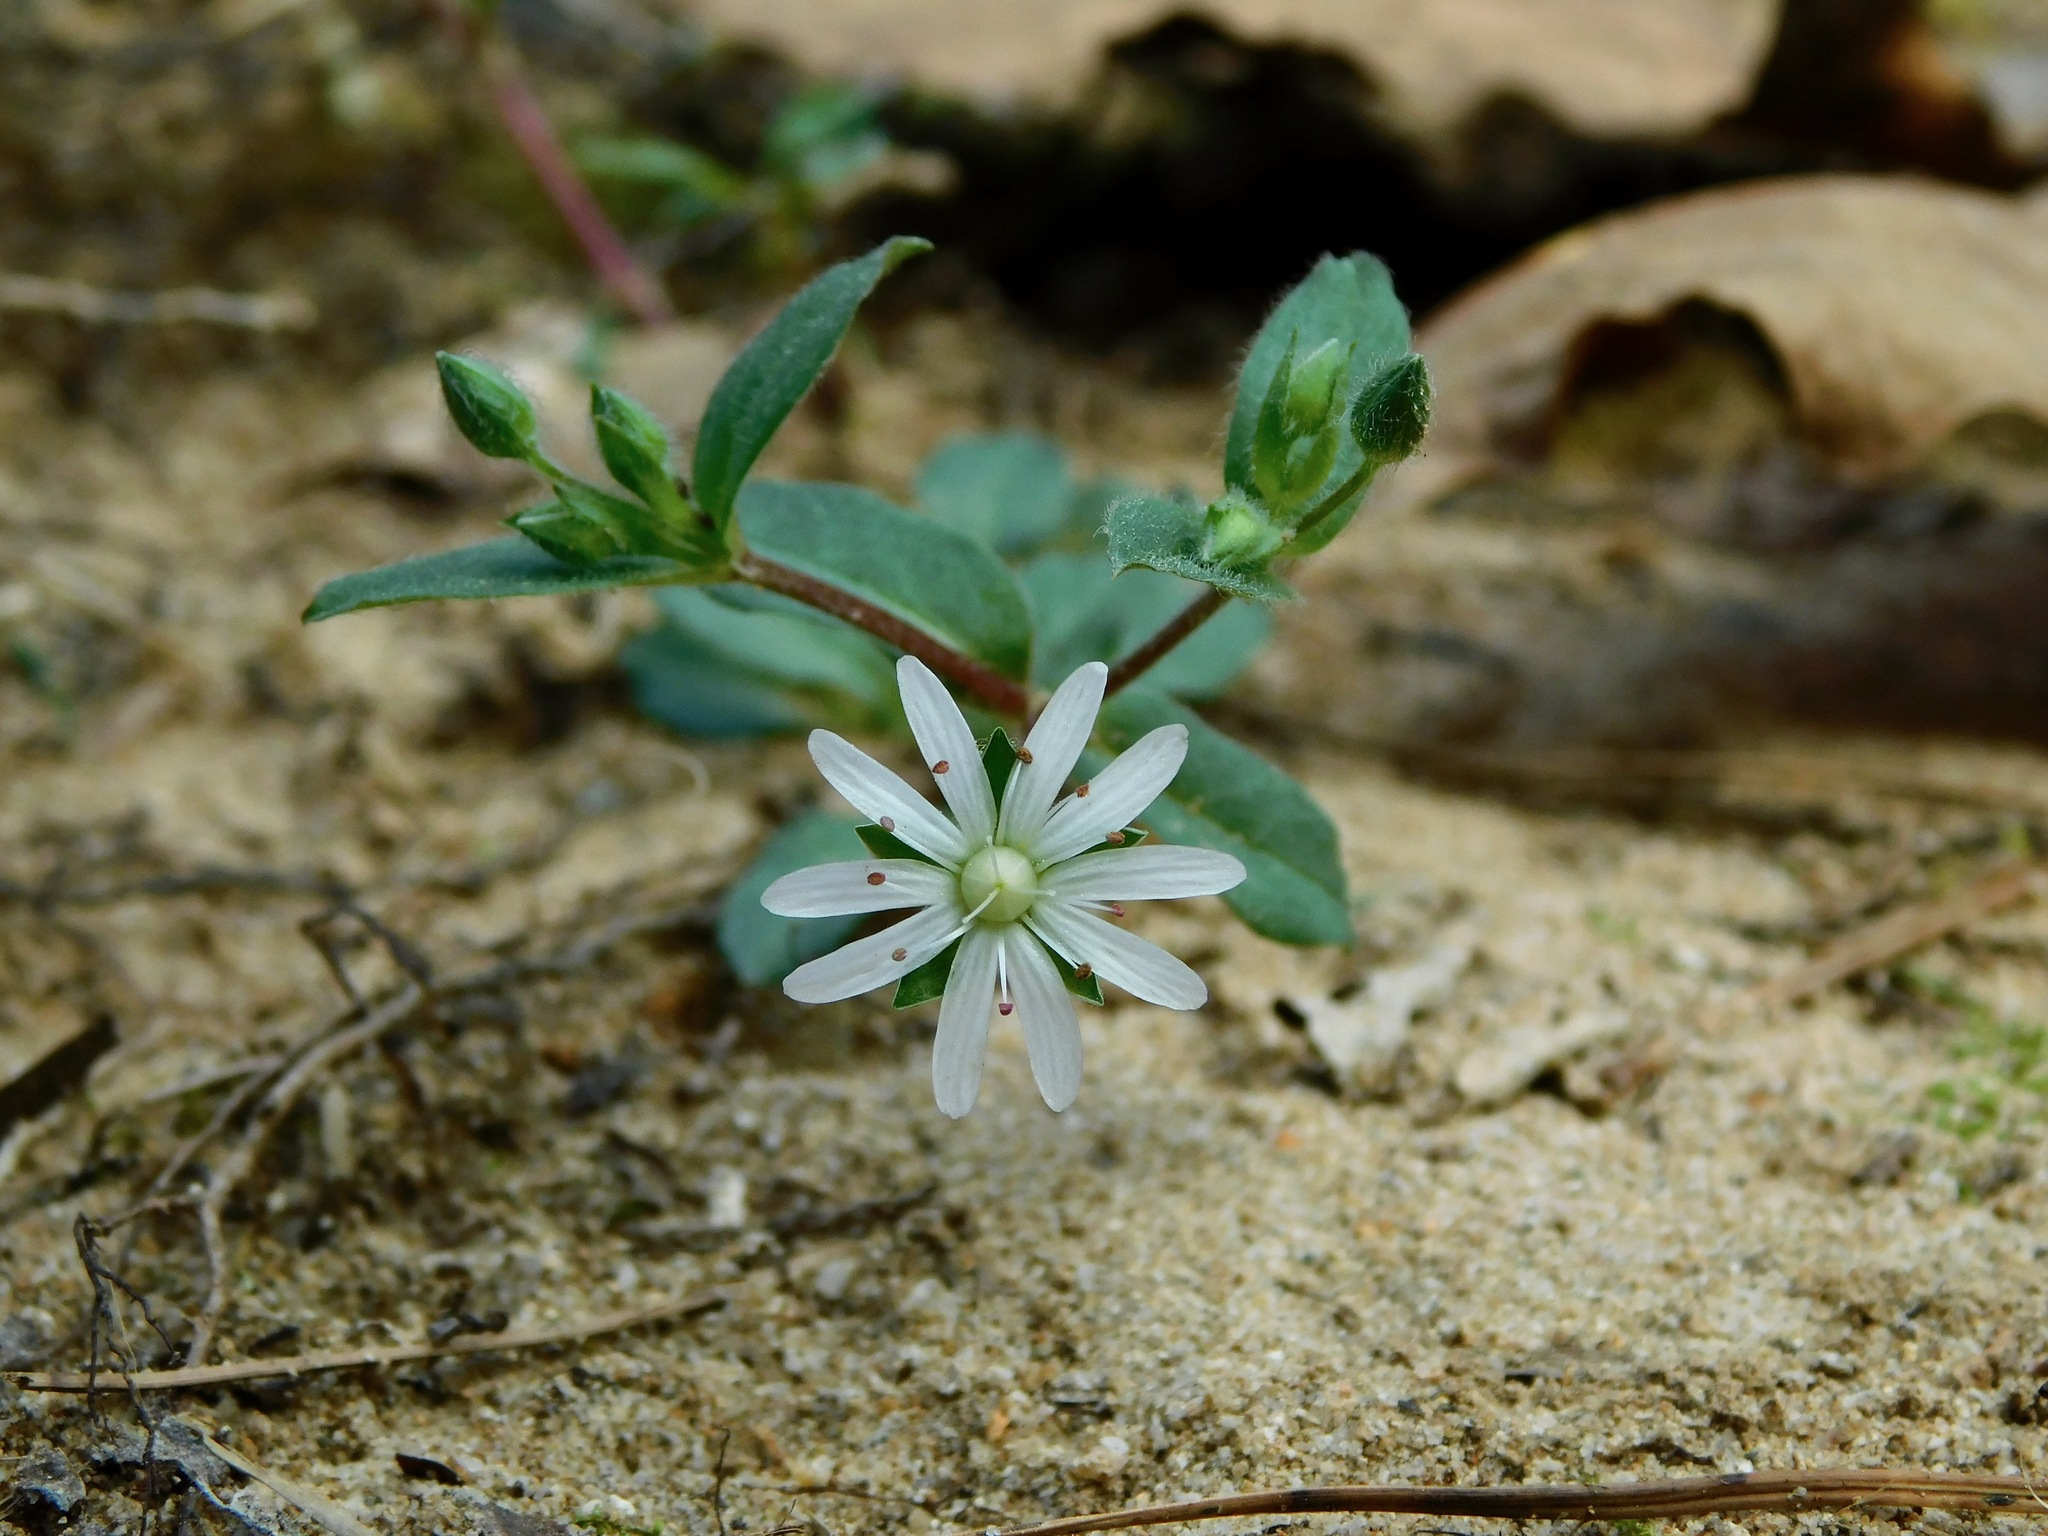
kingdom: Plantae
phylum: Tracheophyta
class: Magnoliopsida
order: Caryophyllales
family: Caryophyllaceae
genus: Stellaria
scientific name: Stellaria pubera
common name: Star chickweed
